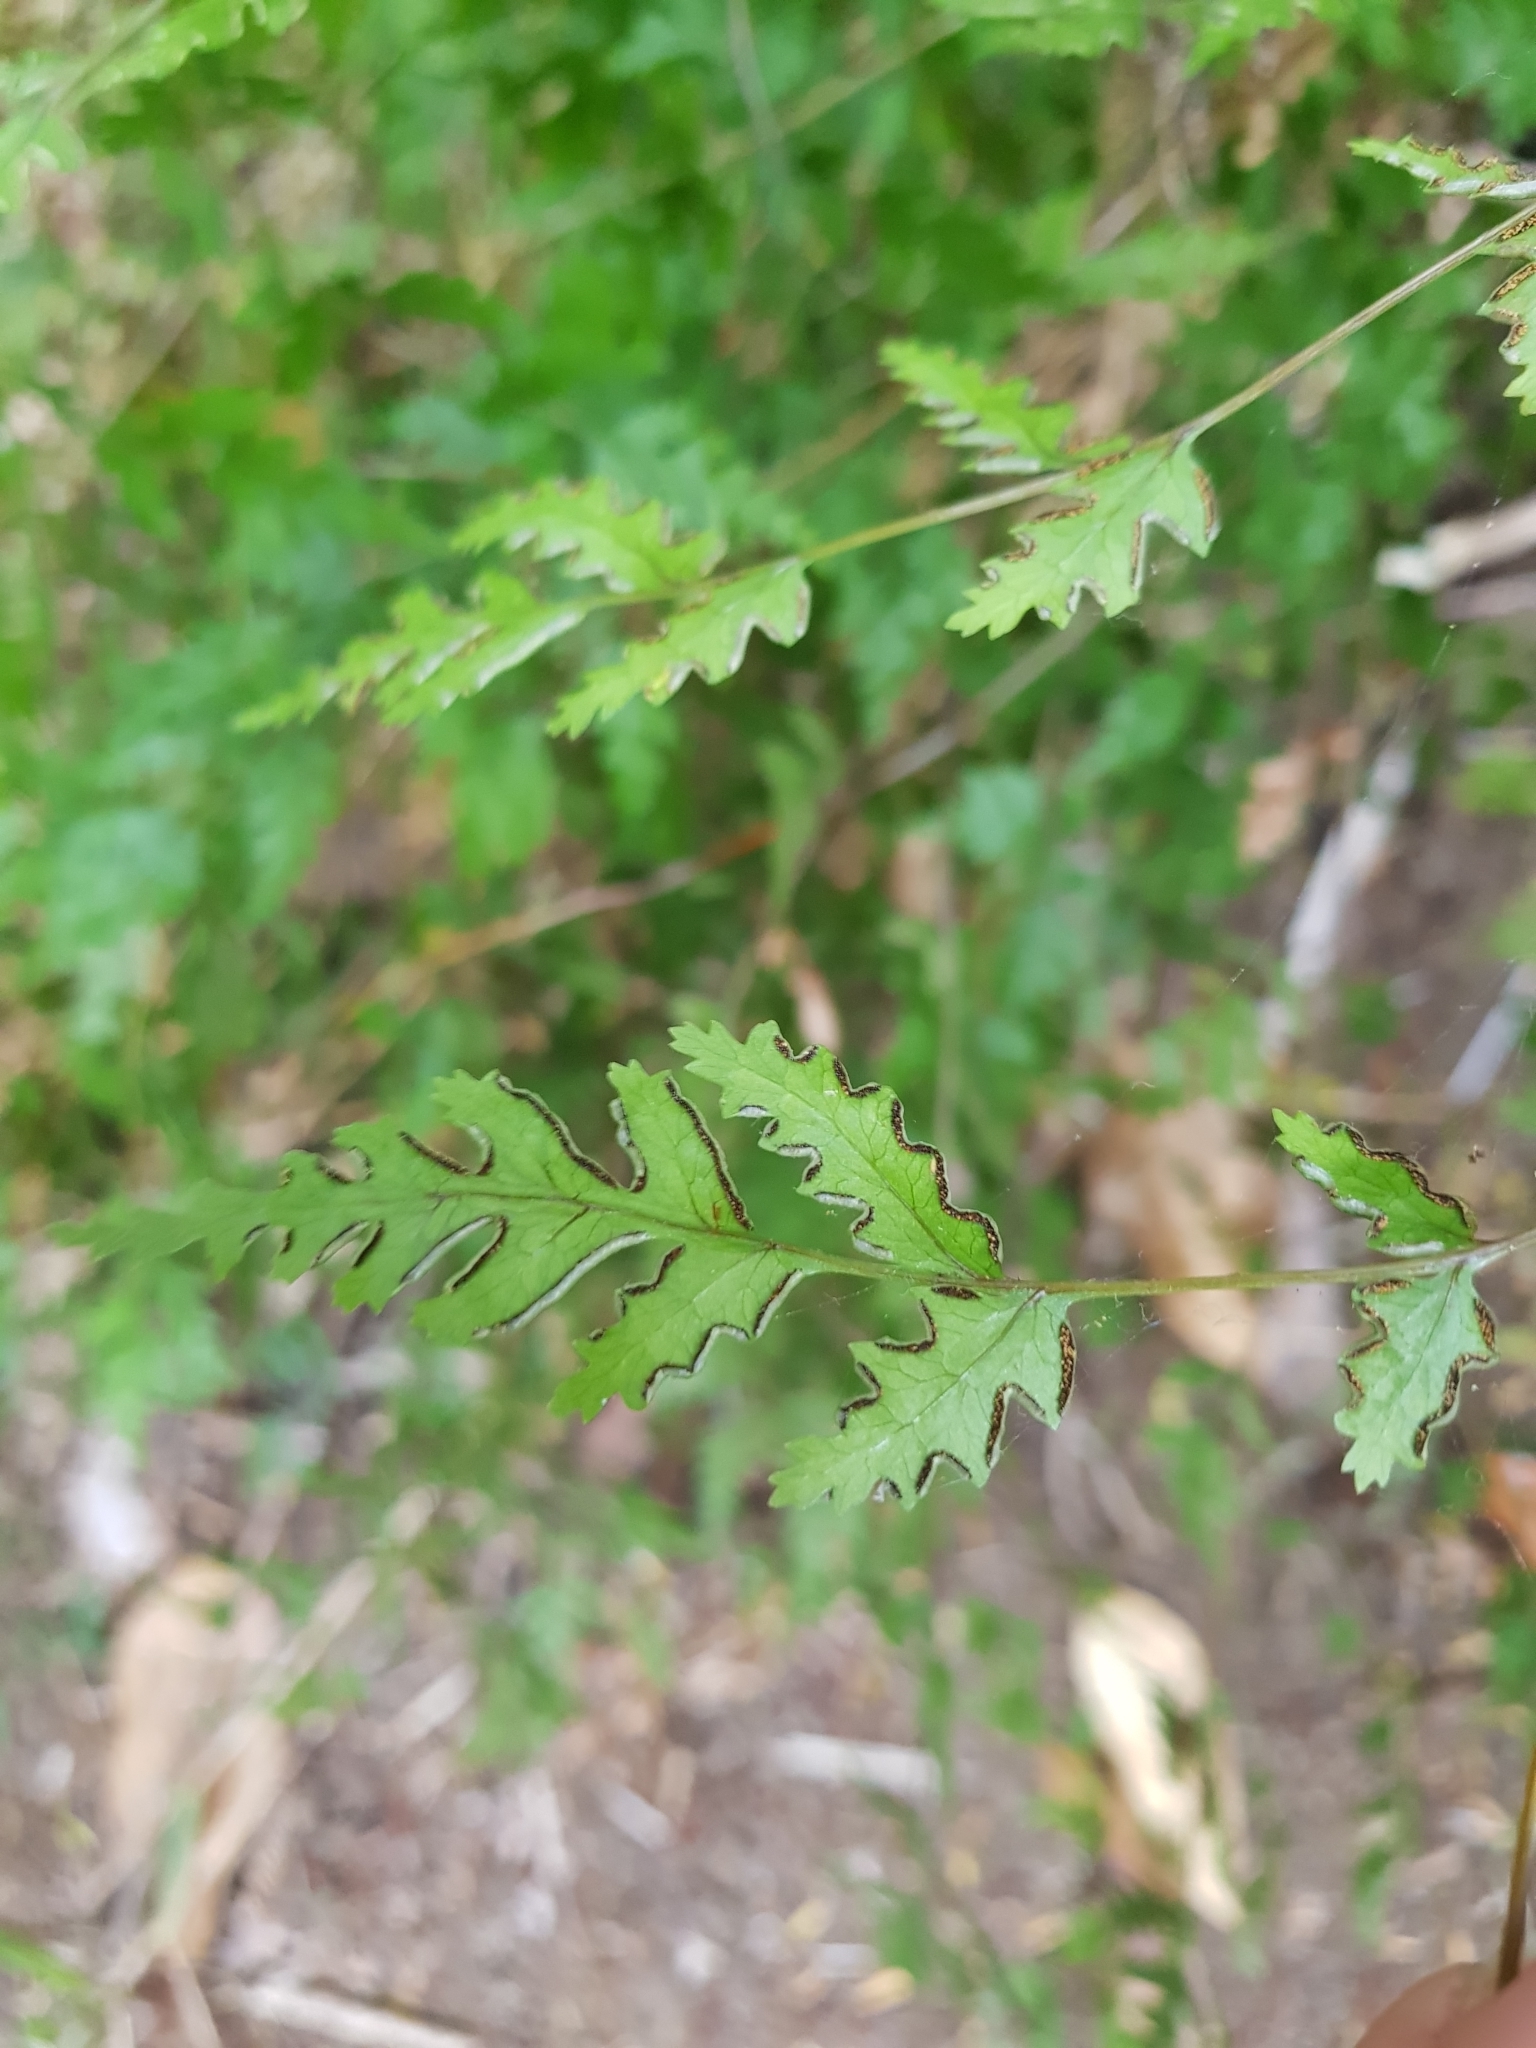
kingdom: Plantae
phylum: Tracheophyta
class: Polypodiopsida
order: Polypodiales
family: Pteridaceae
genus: Pteris
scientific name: Pteris saxatilis
